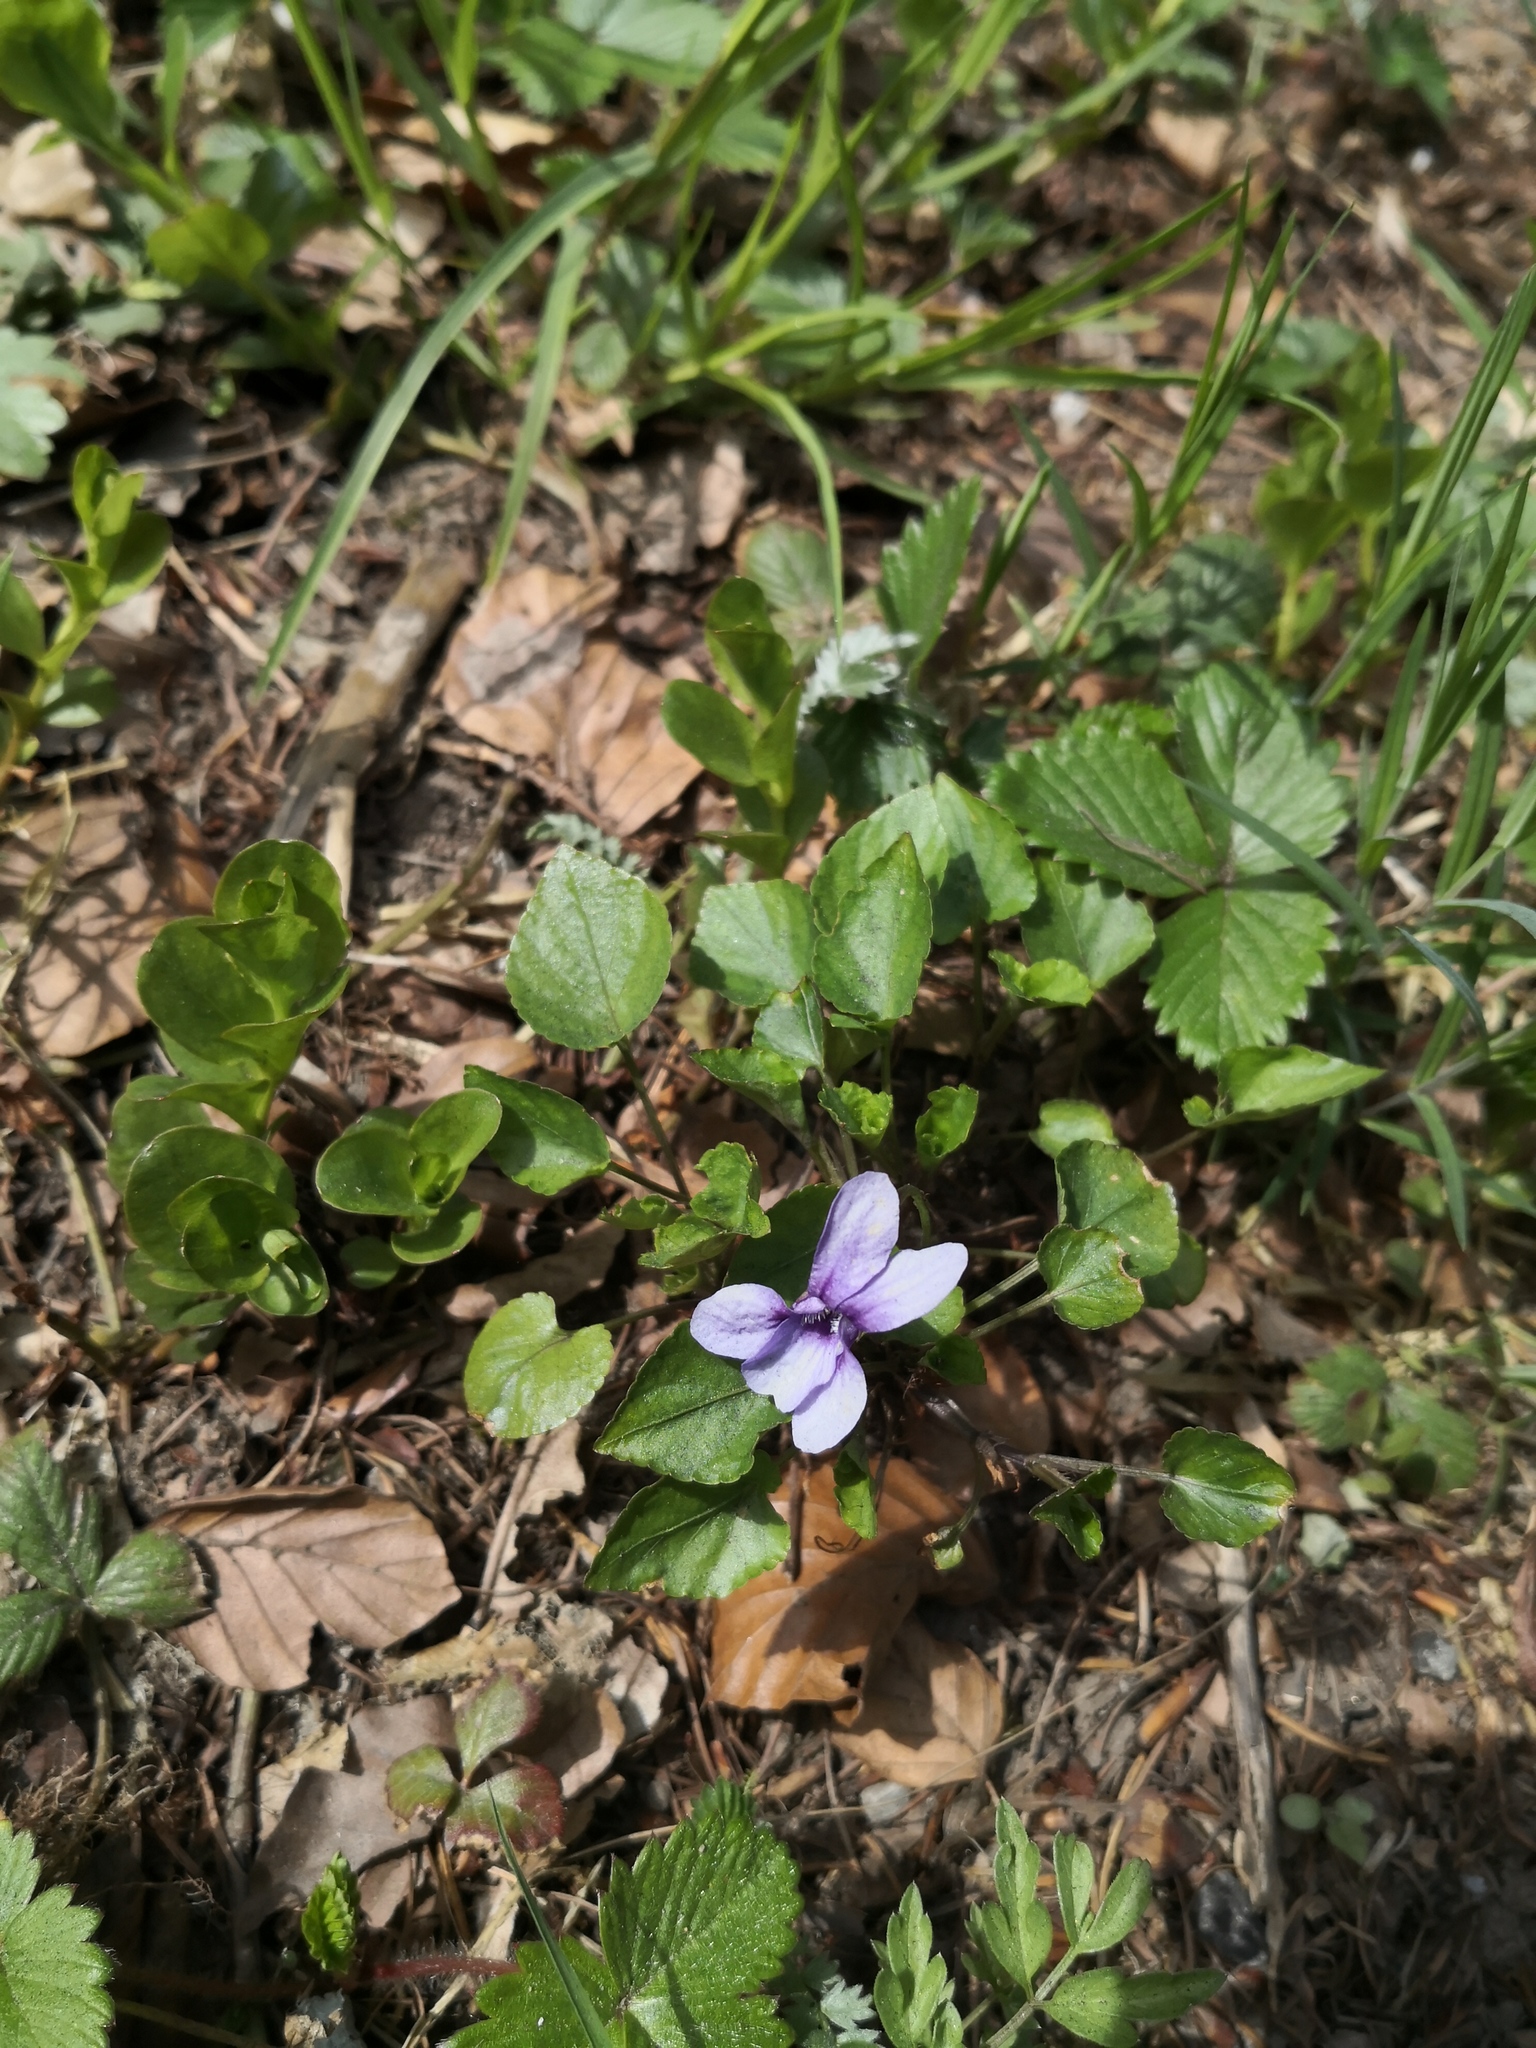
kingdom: Plantae
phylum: Tracheophyta
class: Magnoliopsida
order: Malpighiales
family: Violaceae
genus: Viola
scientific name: Viola reichenbachiana
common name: Early dog-violet
